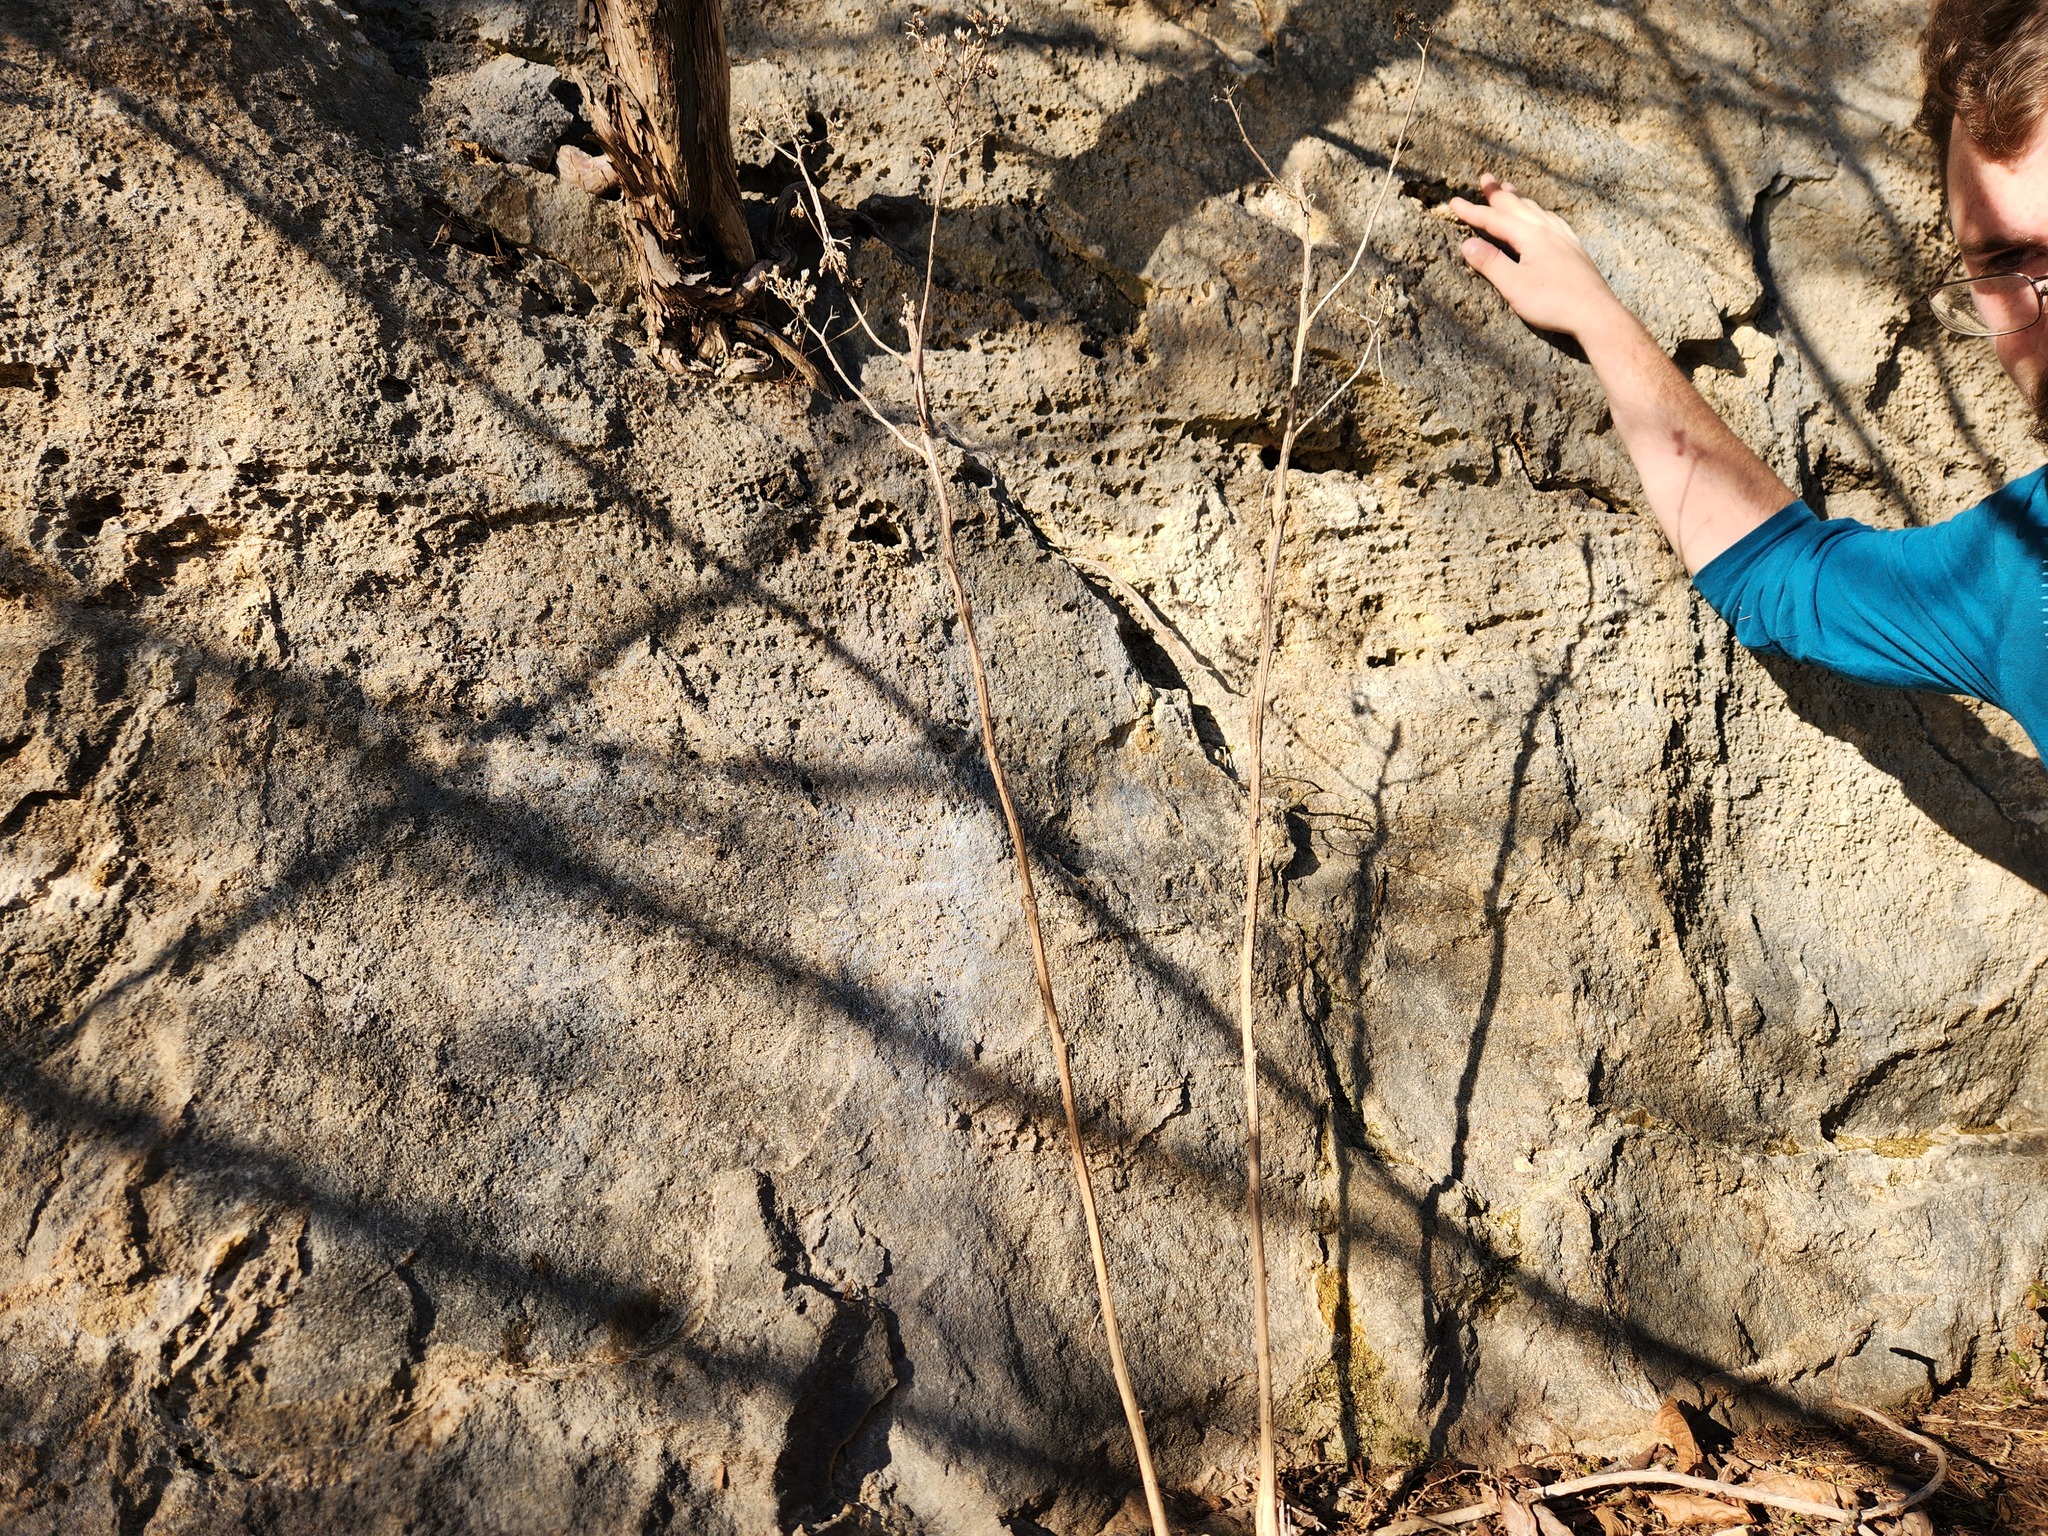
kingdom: Plantae
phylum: Tracheophyta
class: Magnoliopsida
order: Asterales
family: Asteraceae
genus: Verbesina
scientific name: Verbesina virginica
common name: Frostweed
